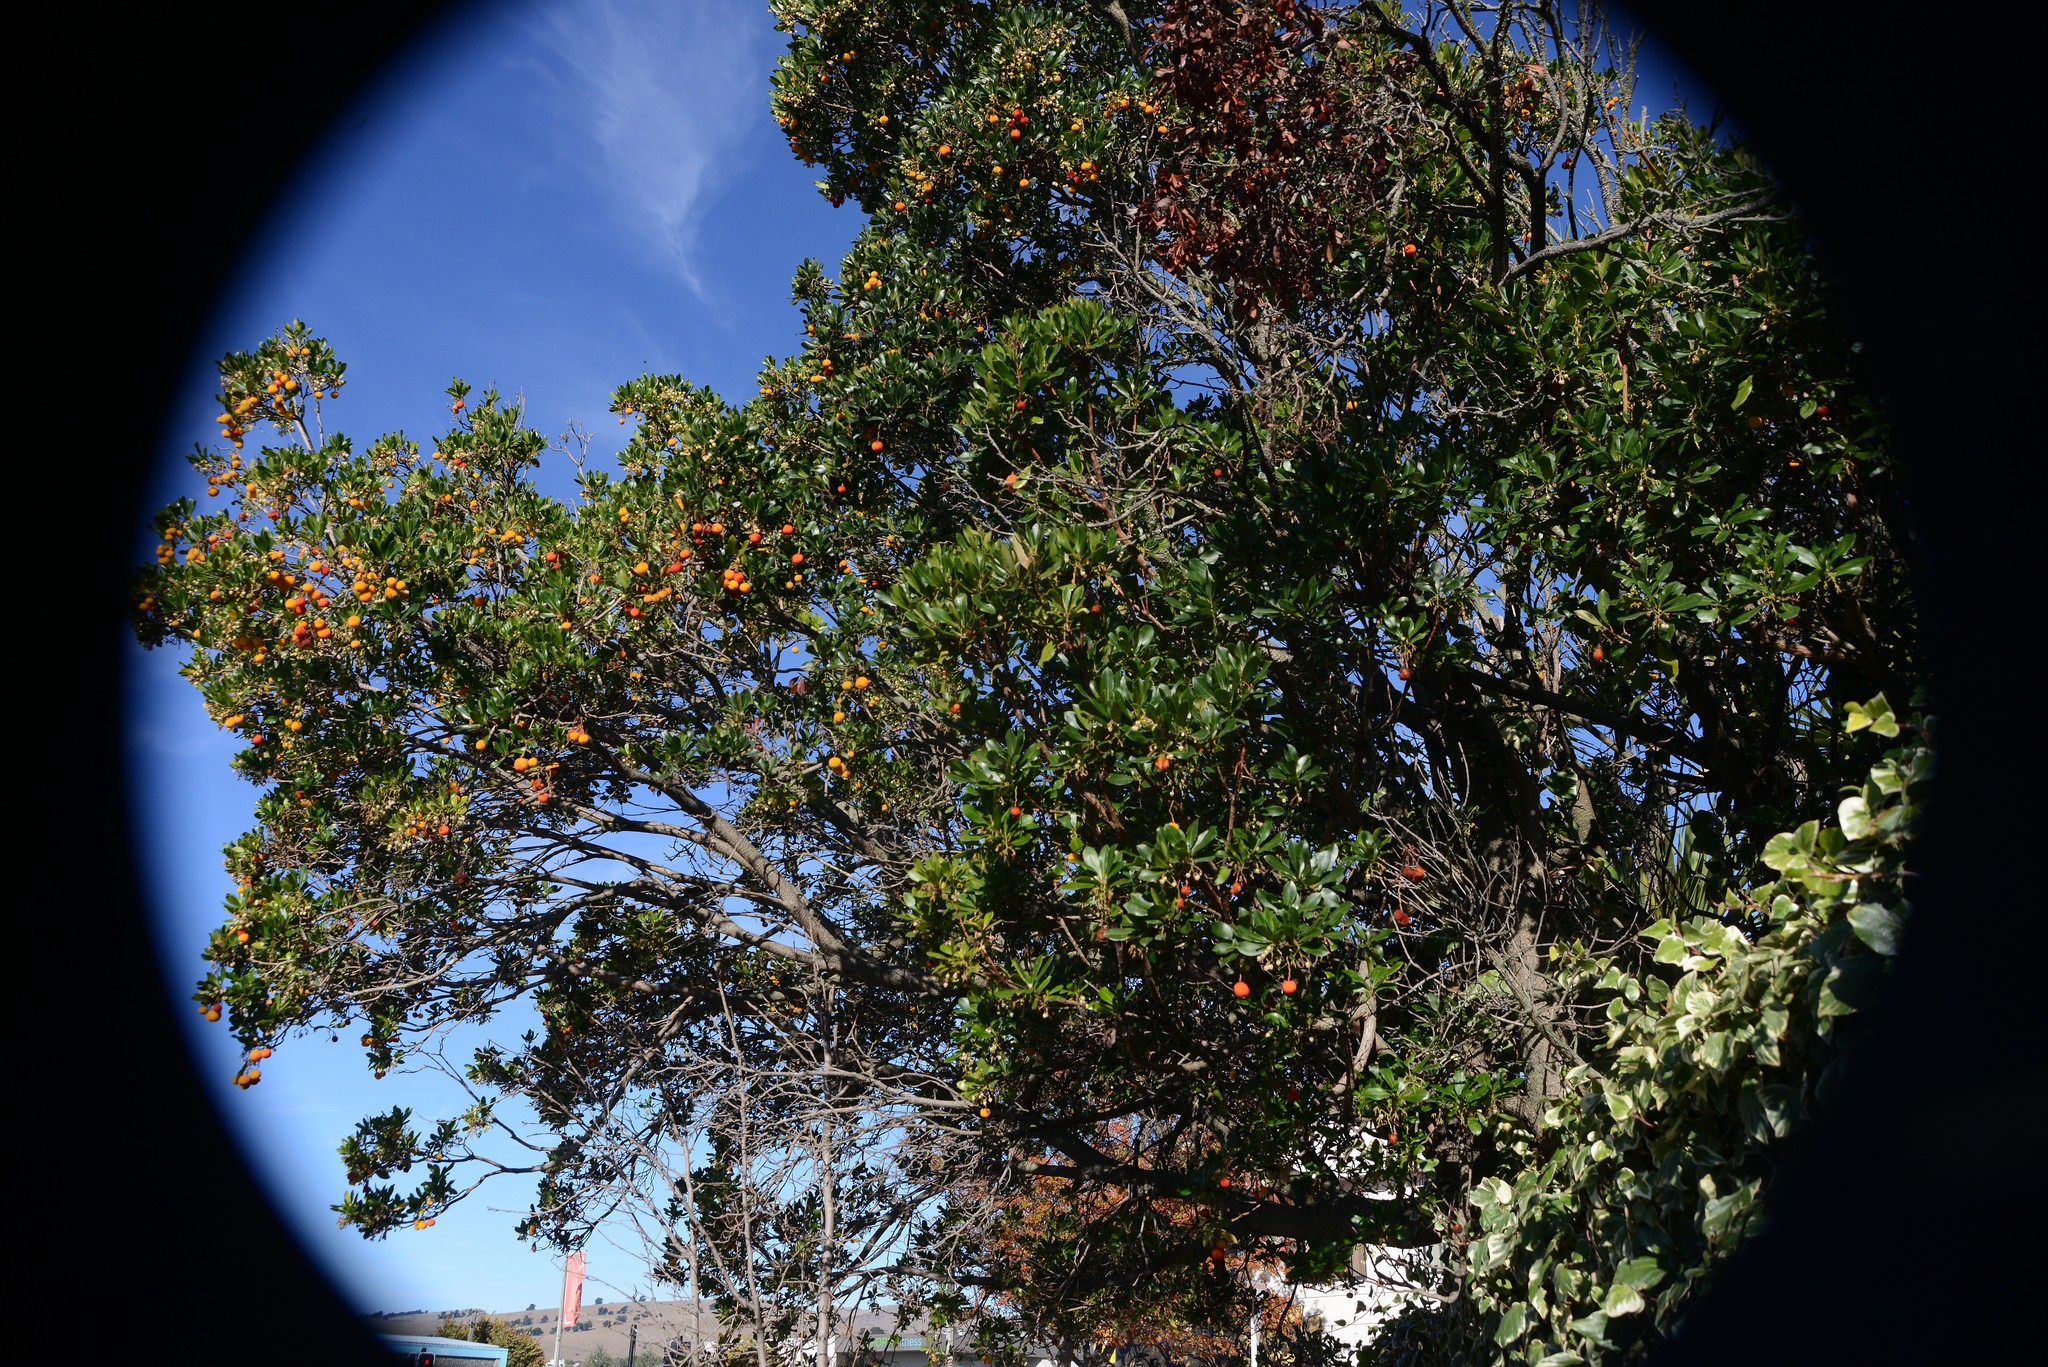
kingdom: Plantae
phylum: Tracheophyta
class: Magnoliopsida
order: Ericales
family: Ericaceae
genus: Arbutus
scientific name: Arbutus unedo
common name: Strawberry-tree
